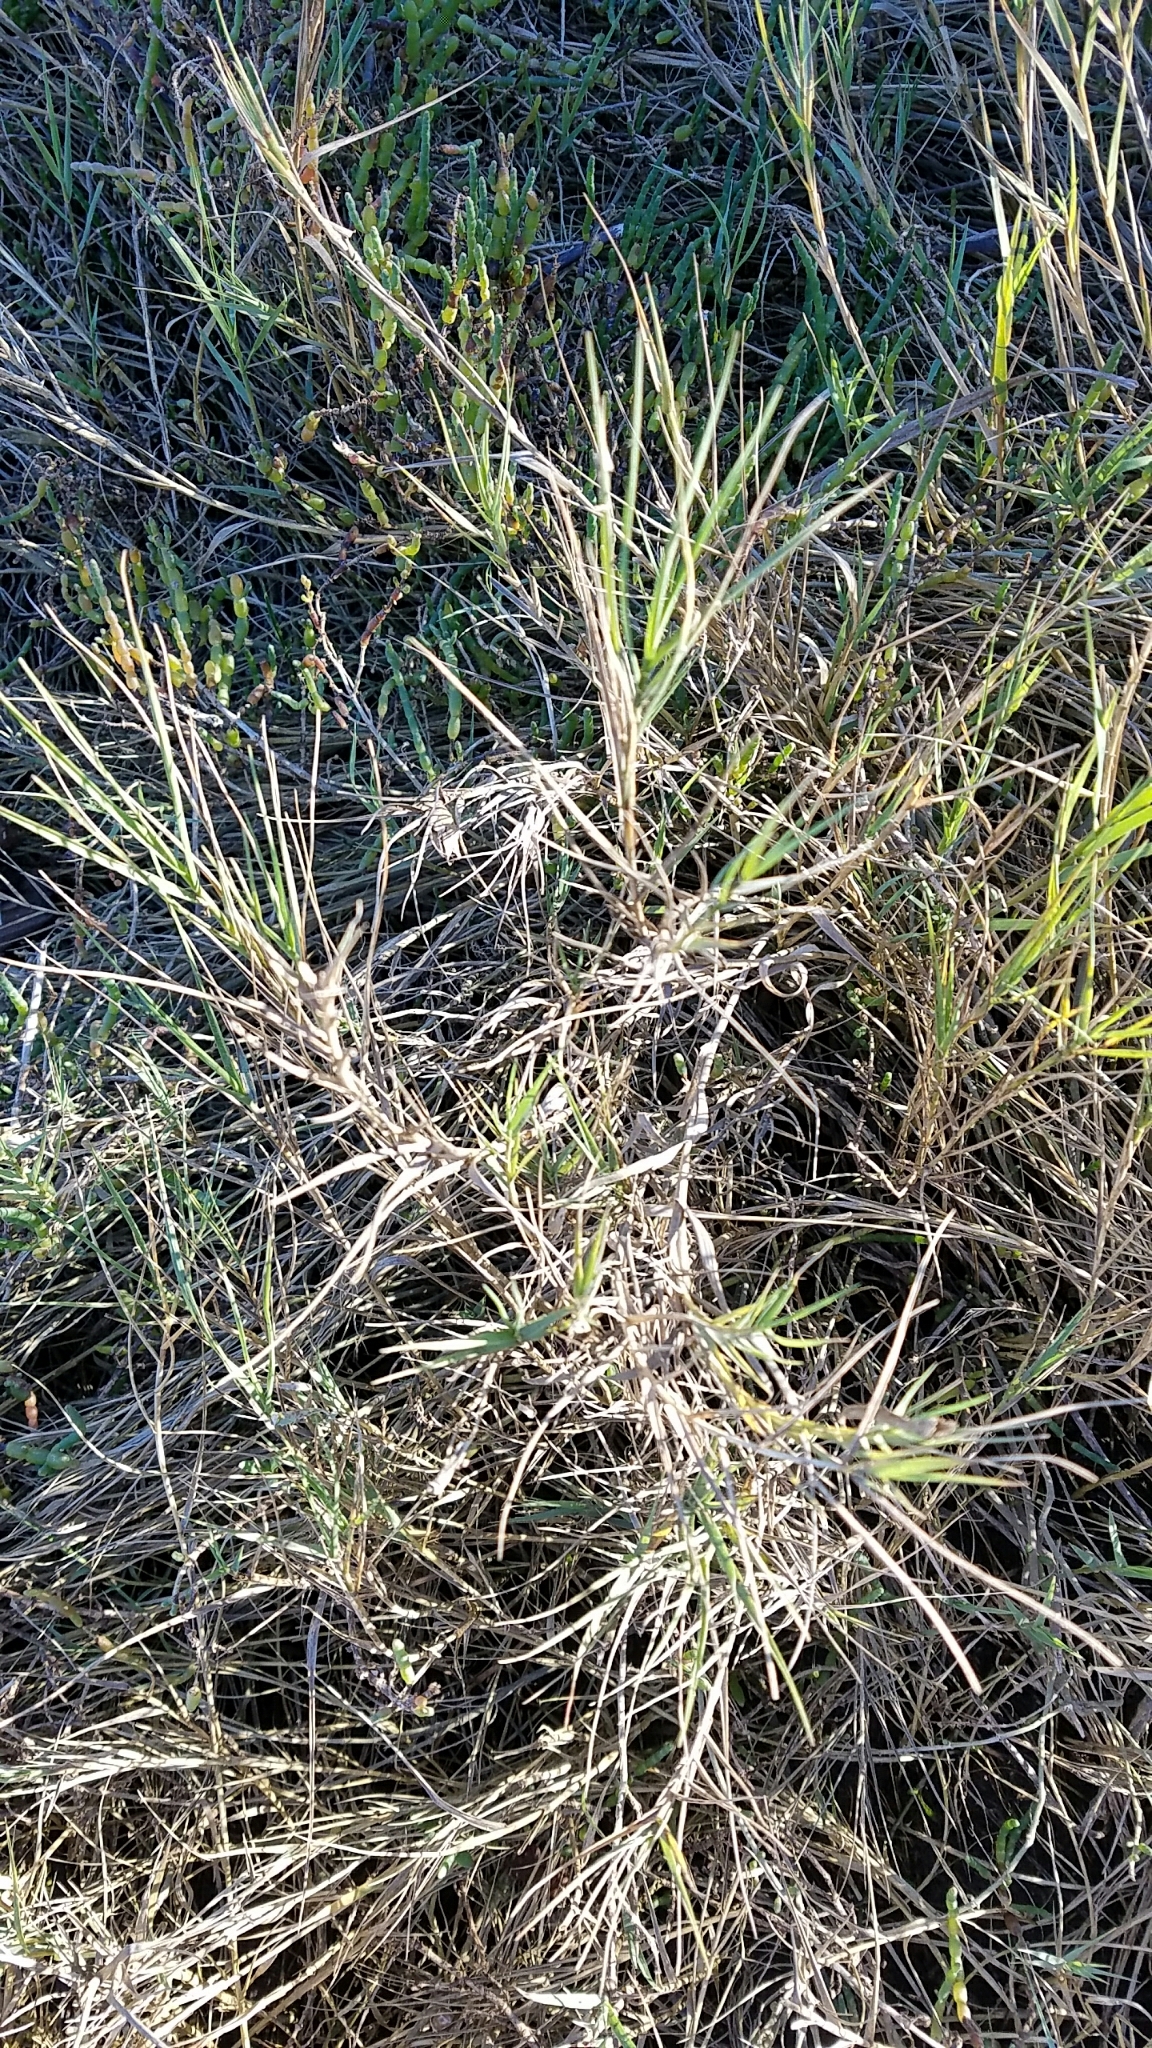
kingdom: Plantae
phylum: Tracheophyta
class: Liliopsida
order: Poales
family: Poaceae
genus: Distichlis
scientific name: Distichlis spicata
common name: Saltgrass
